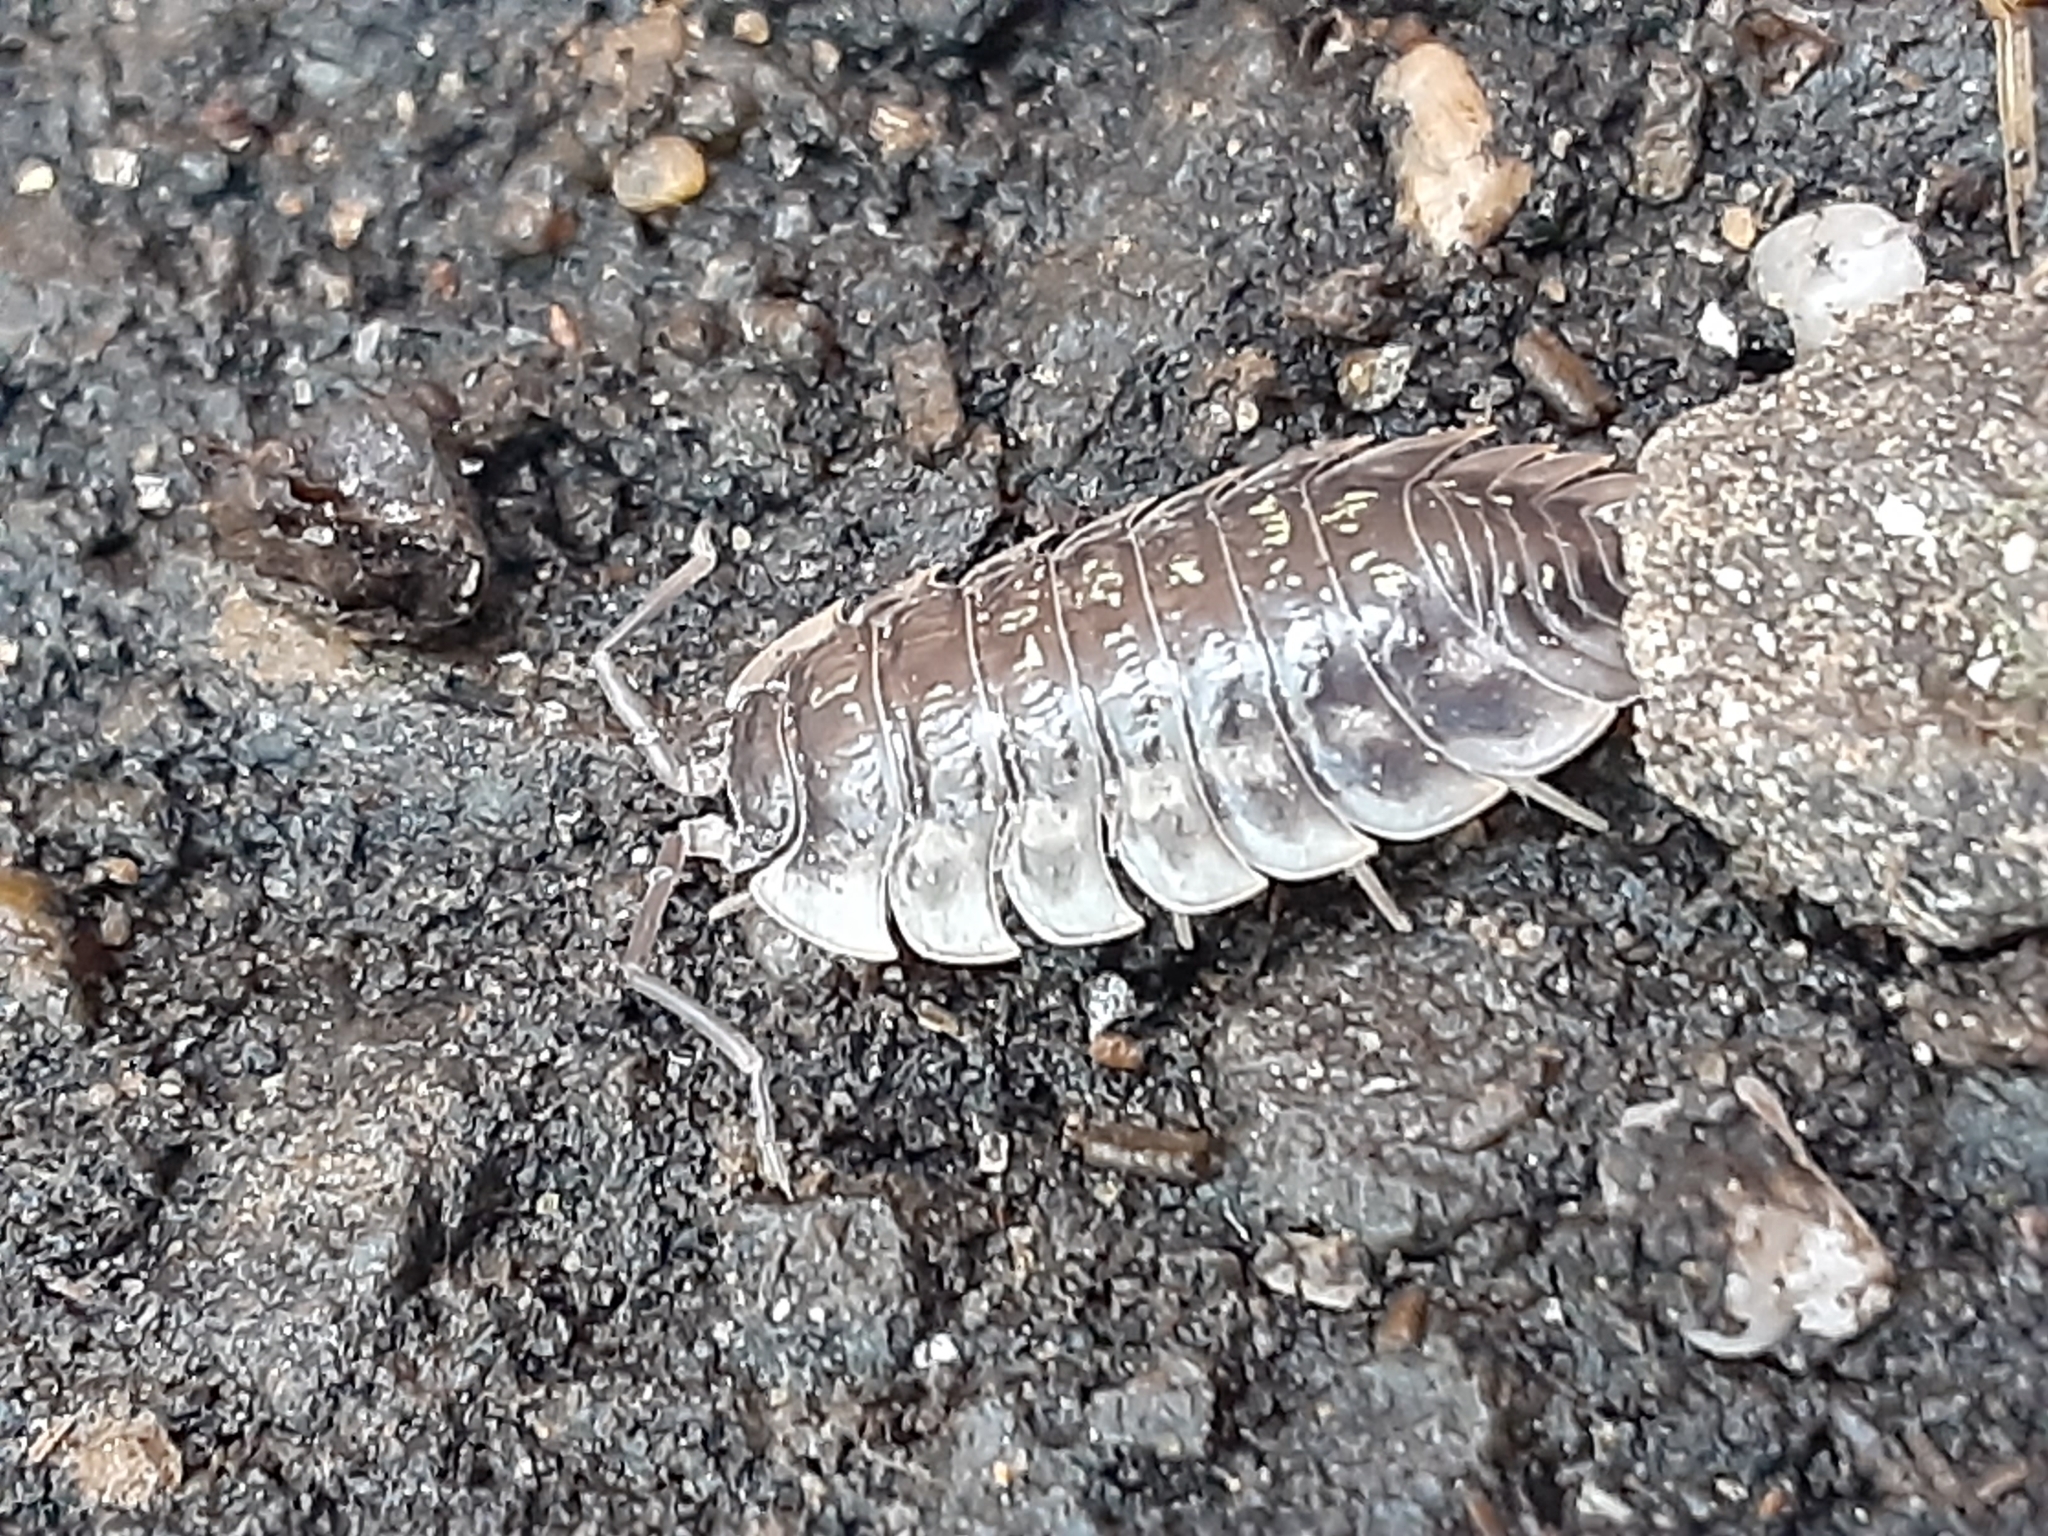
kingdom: Animalia
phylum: Arthropoda
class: Malacostraca
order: Isopoda
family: Oniscidae
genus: Oniscus
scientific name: Oniscus asellus
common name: Common shiny woodlouse
